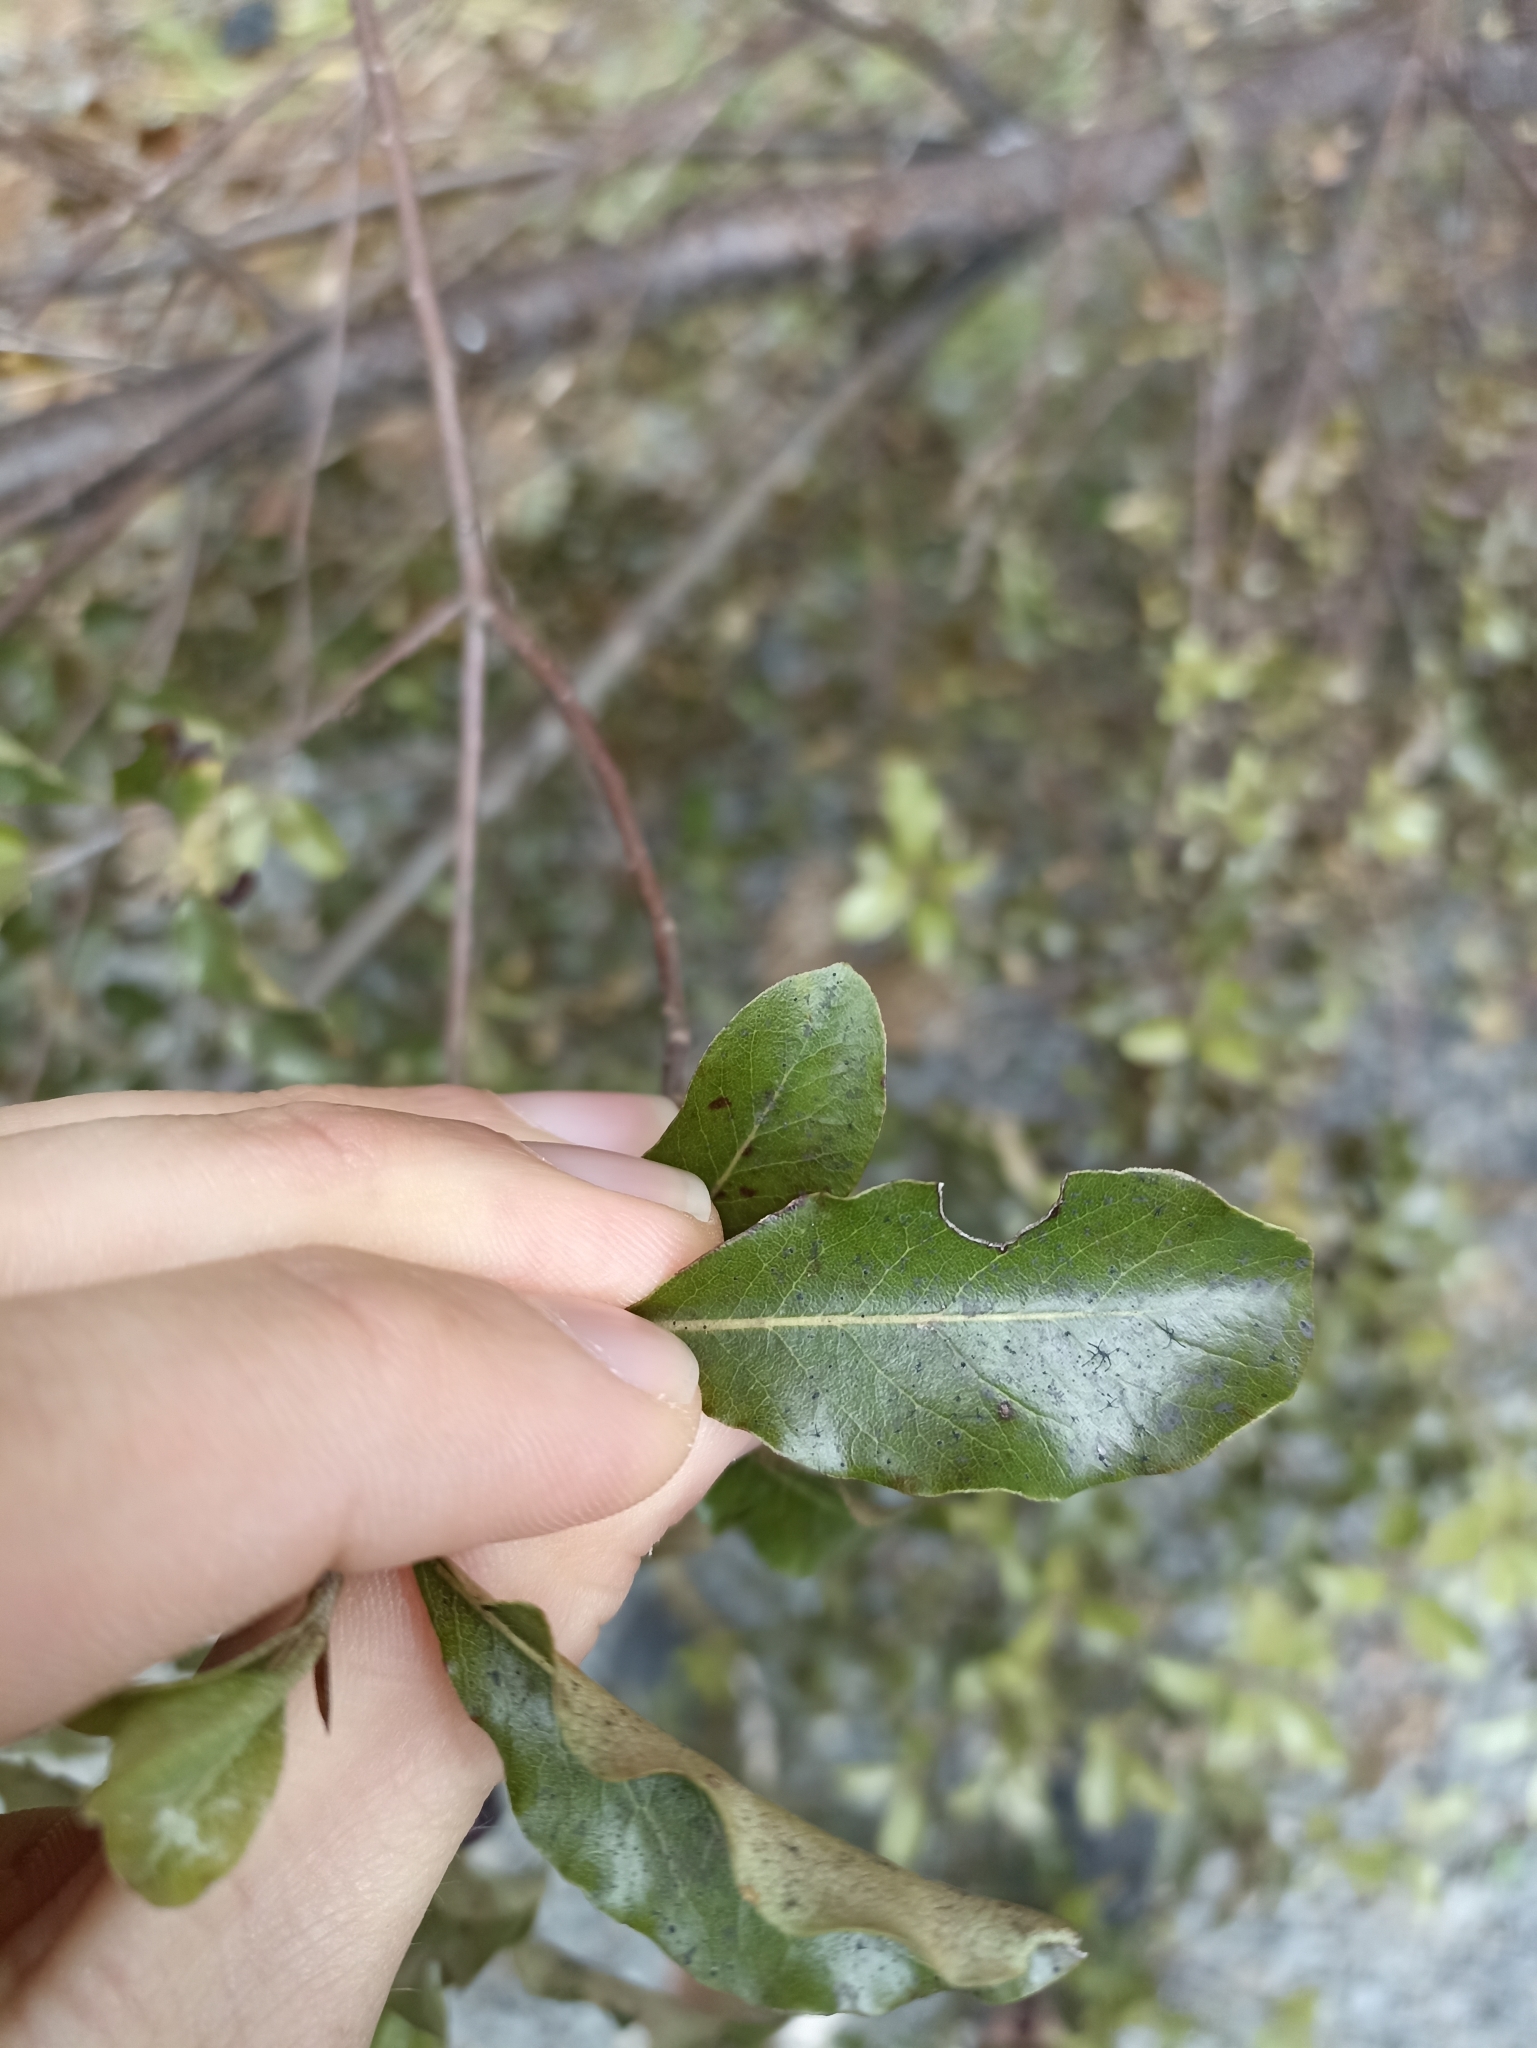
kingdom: Plantae
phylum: Tracheophyta
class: Magnoliopsida
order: Apiales
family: Pittosporaceae
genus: Pittosporum
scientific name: Pittosporum tenuifolium
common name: Kohuhu
